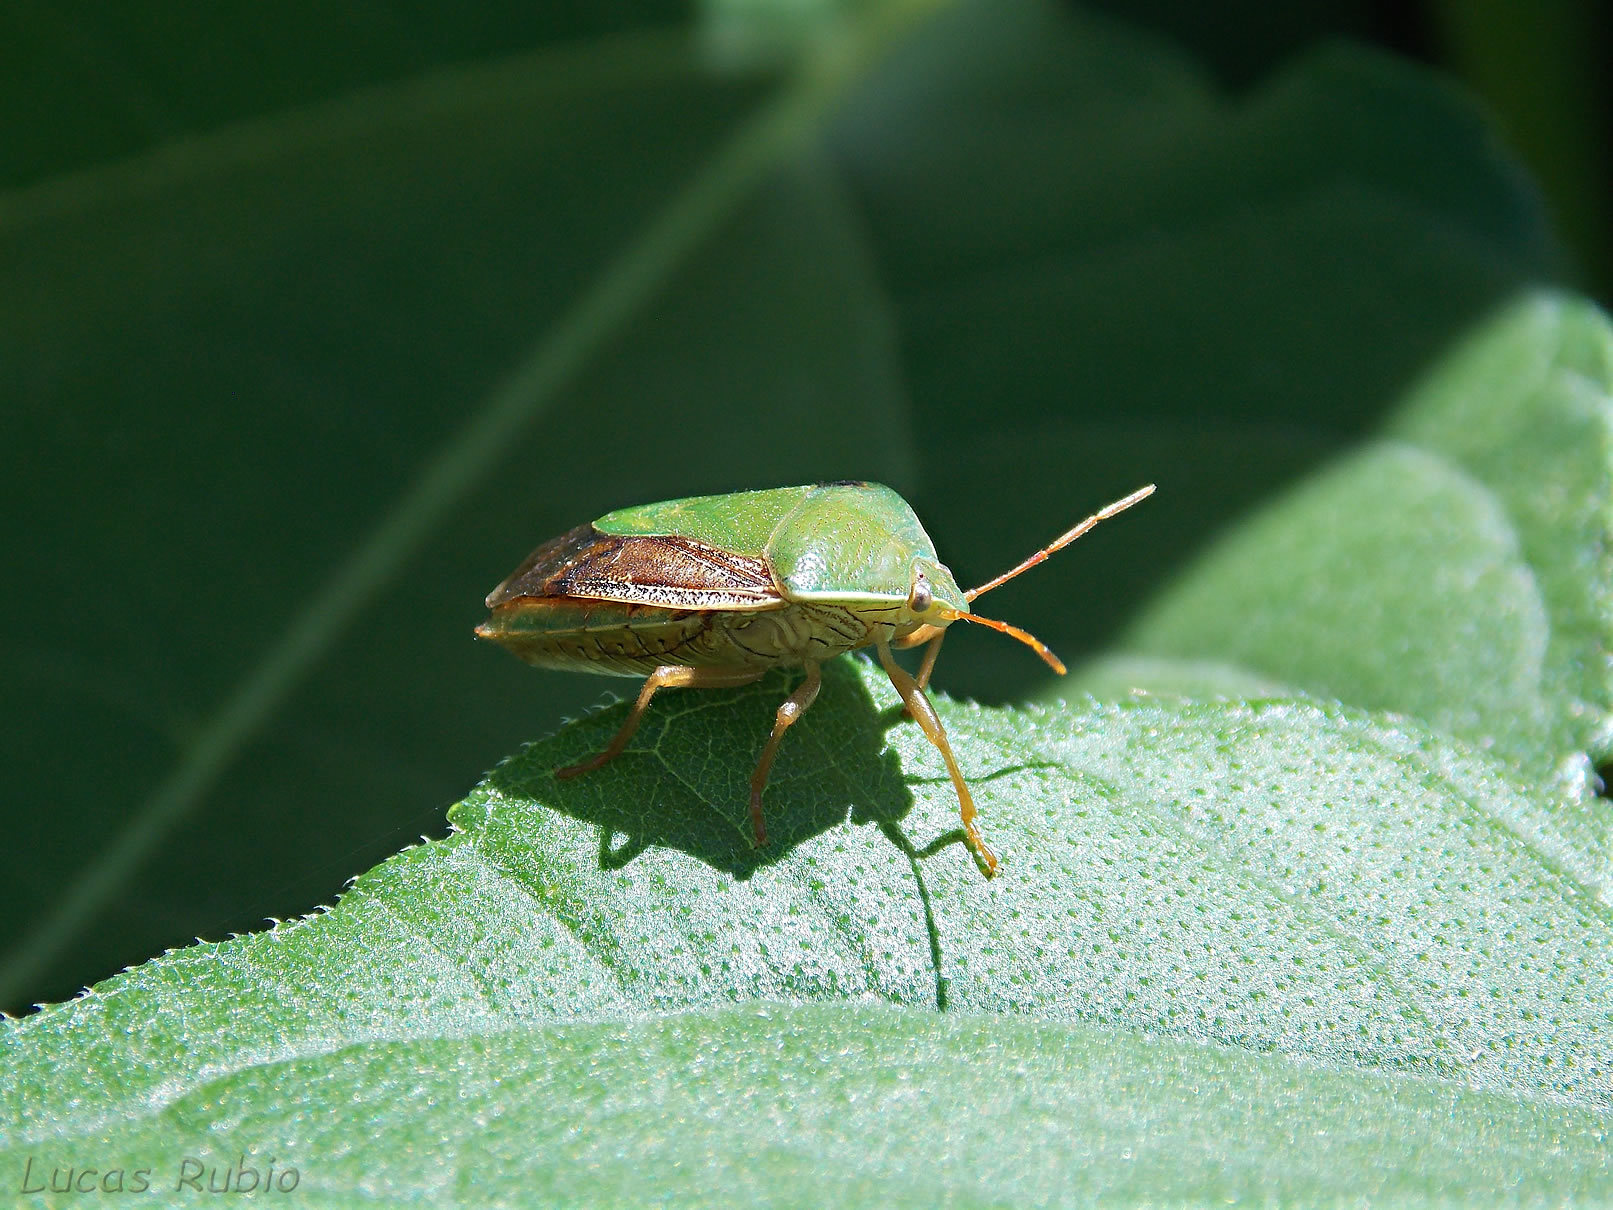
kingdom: Animalia
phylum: Arthropoda
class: Insecta
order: Hemiptera
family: Pentatomidae
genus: Edessa
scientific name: Edessa meditabunda
